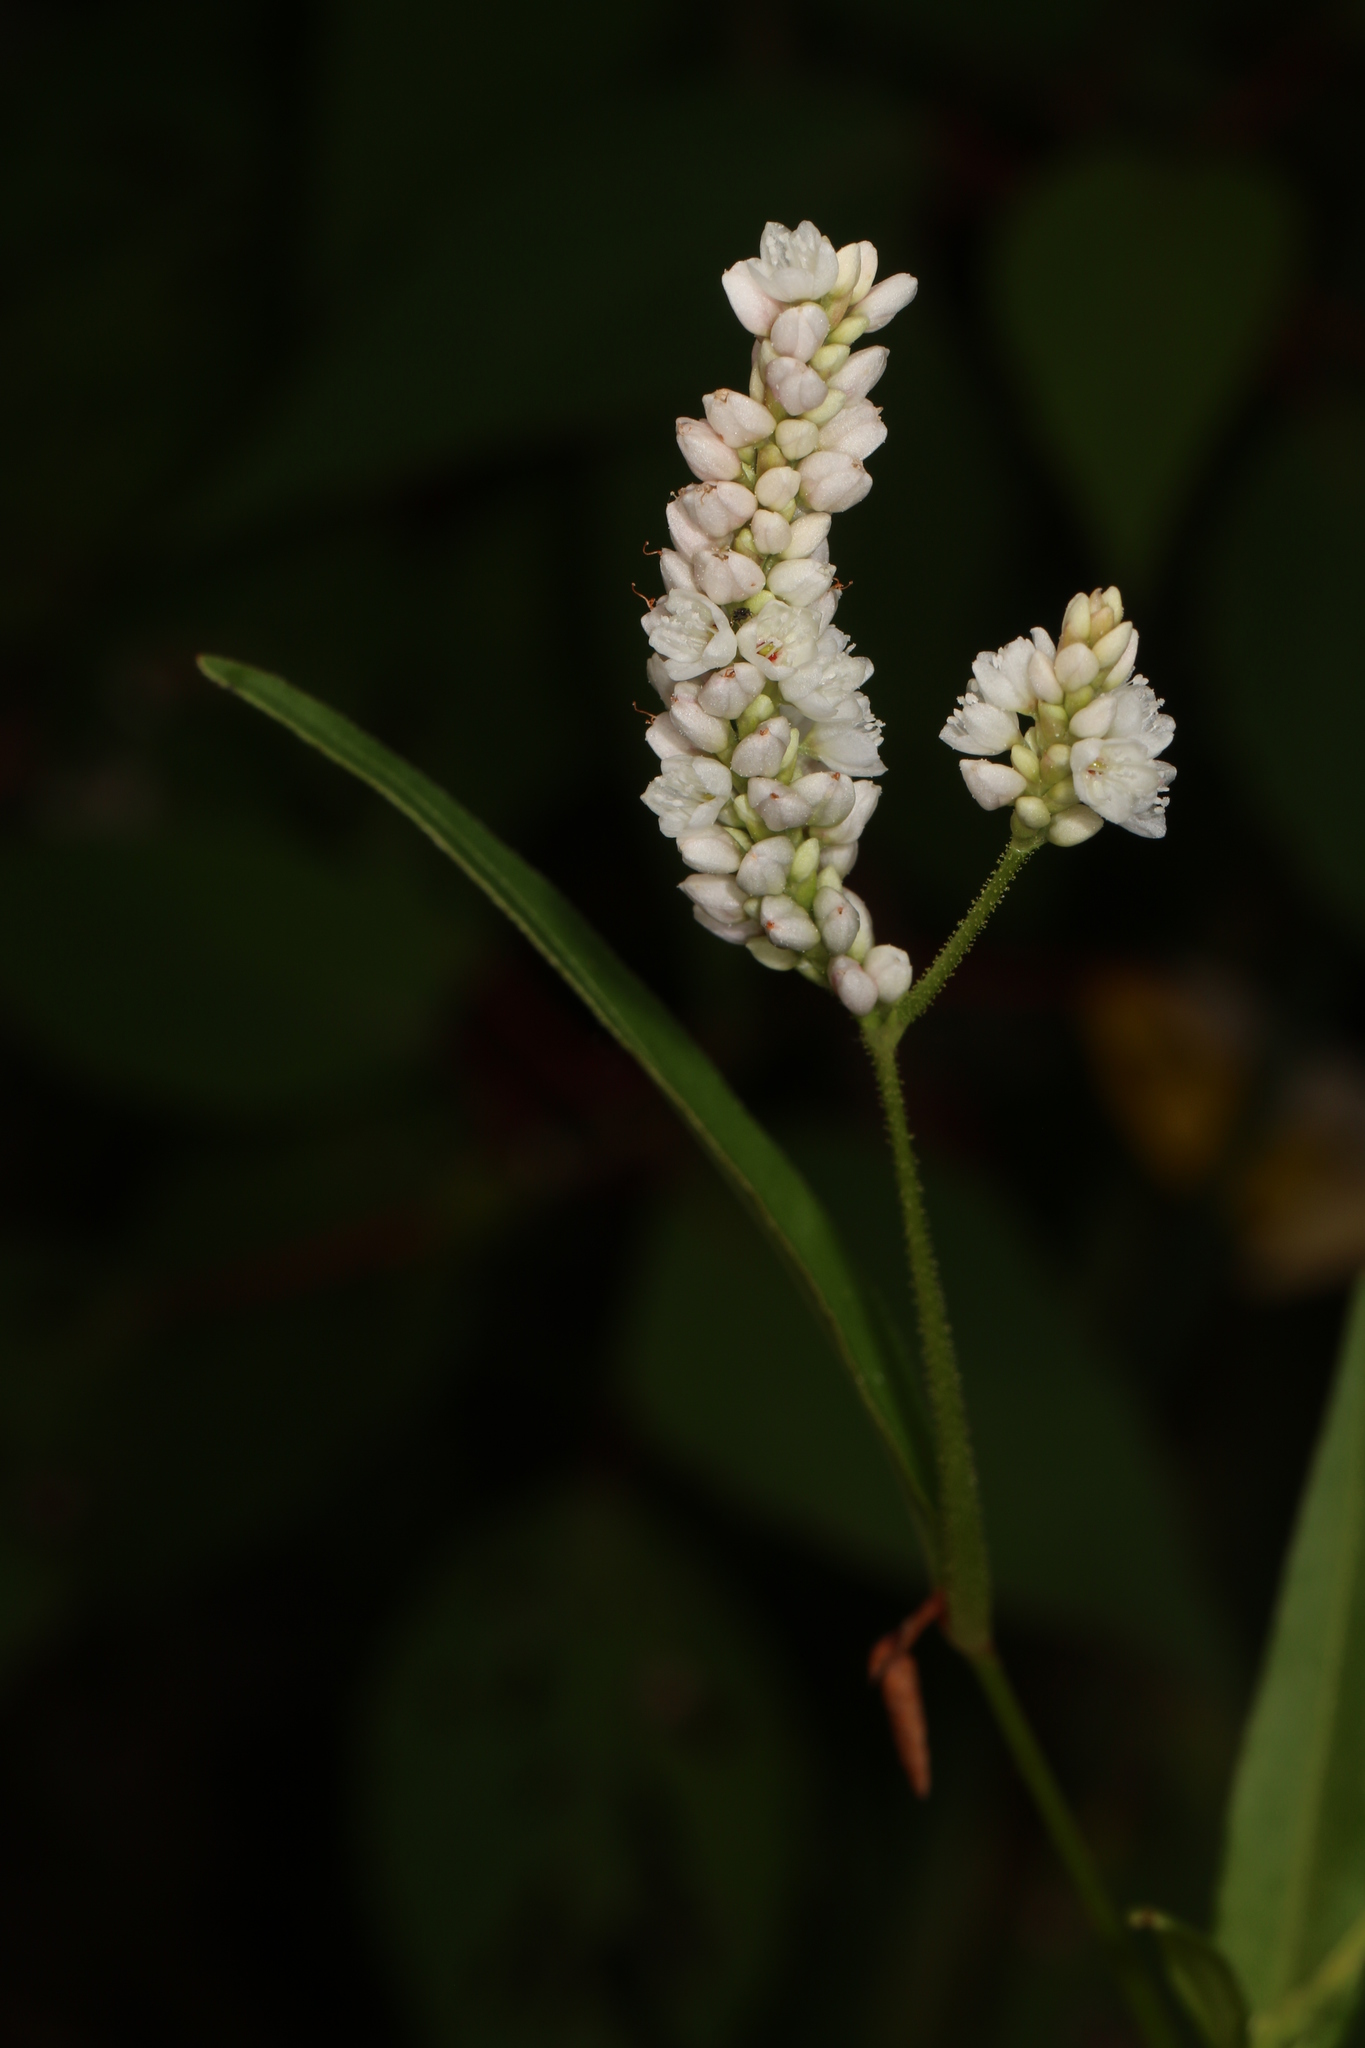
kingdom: Plantae
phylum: Tracheophyta
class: Magnoliopsida
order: Caryophyllales
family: Polygonaceae
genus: Persicaria
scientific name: Persicaria pensylvanica
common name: Pinkweed
